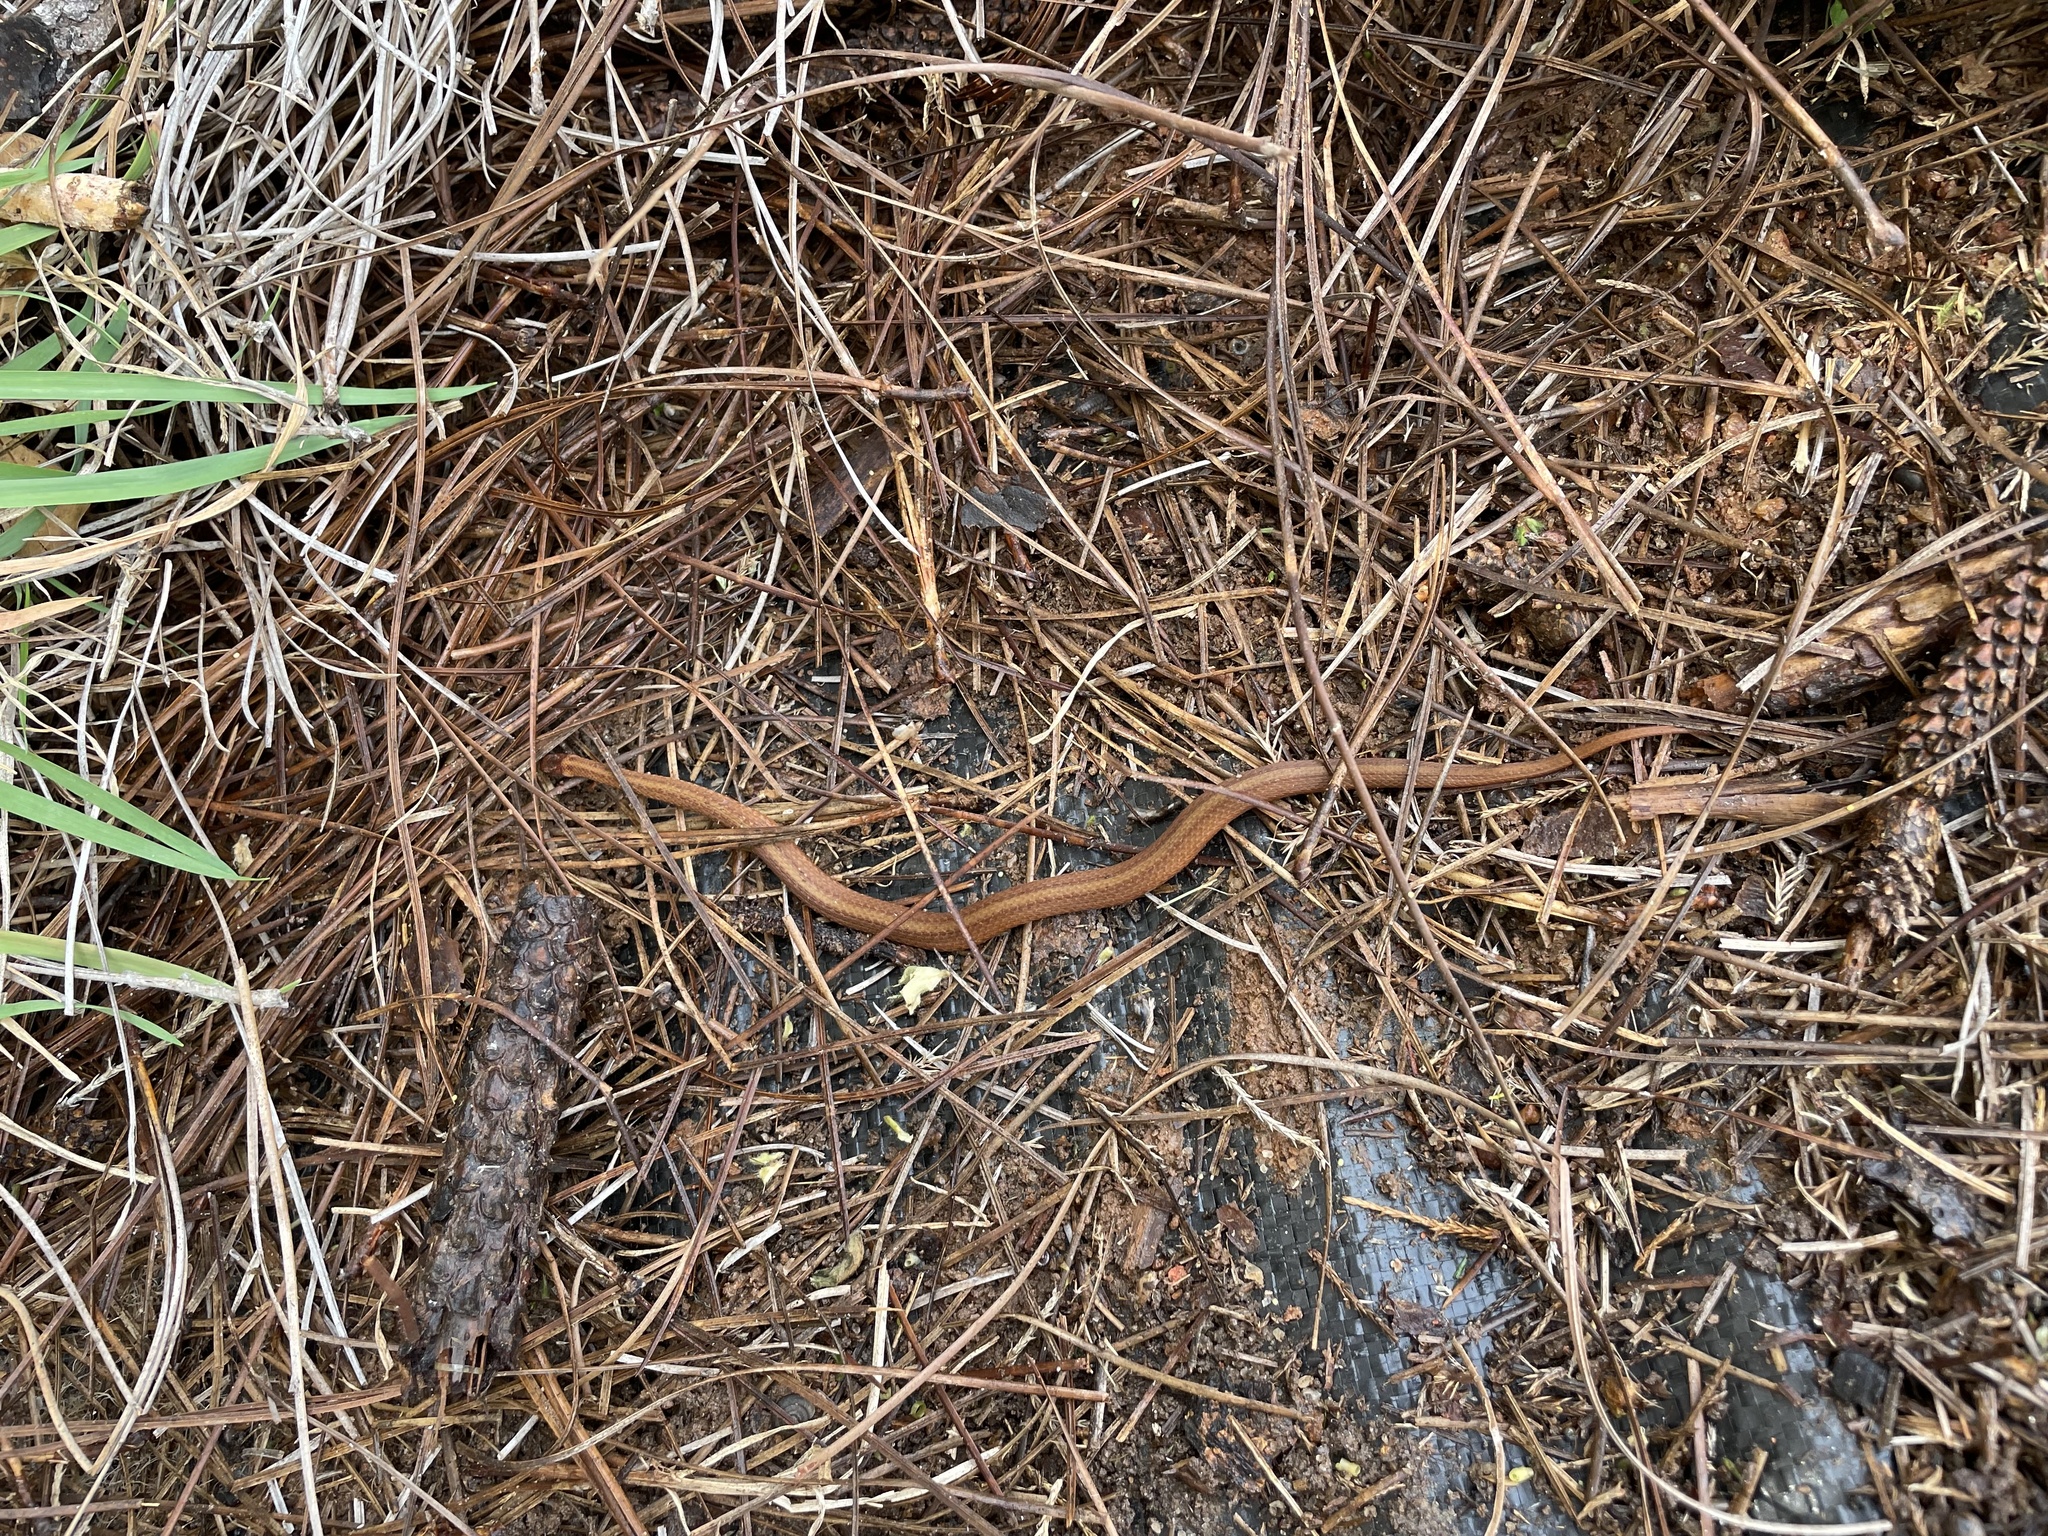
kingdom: Animalia
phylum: Chordata
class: Squamata
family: Colubridae
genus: Storeria
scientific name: Storeria occipitomaculata
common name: Redbelly snake
